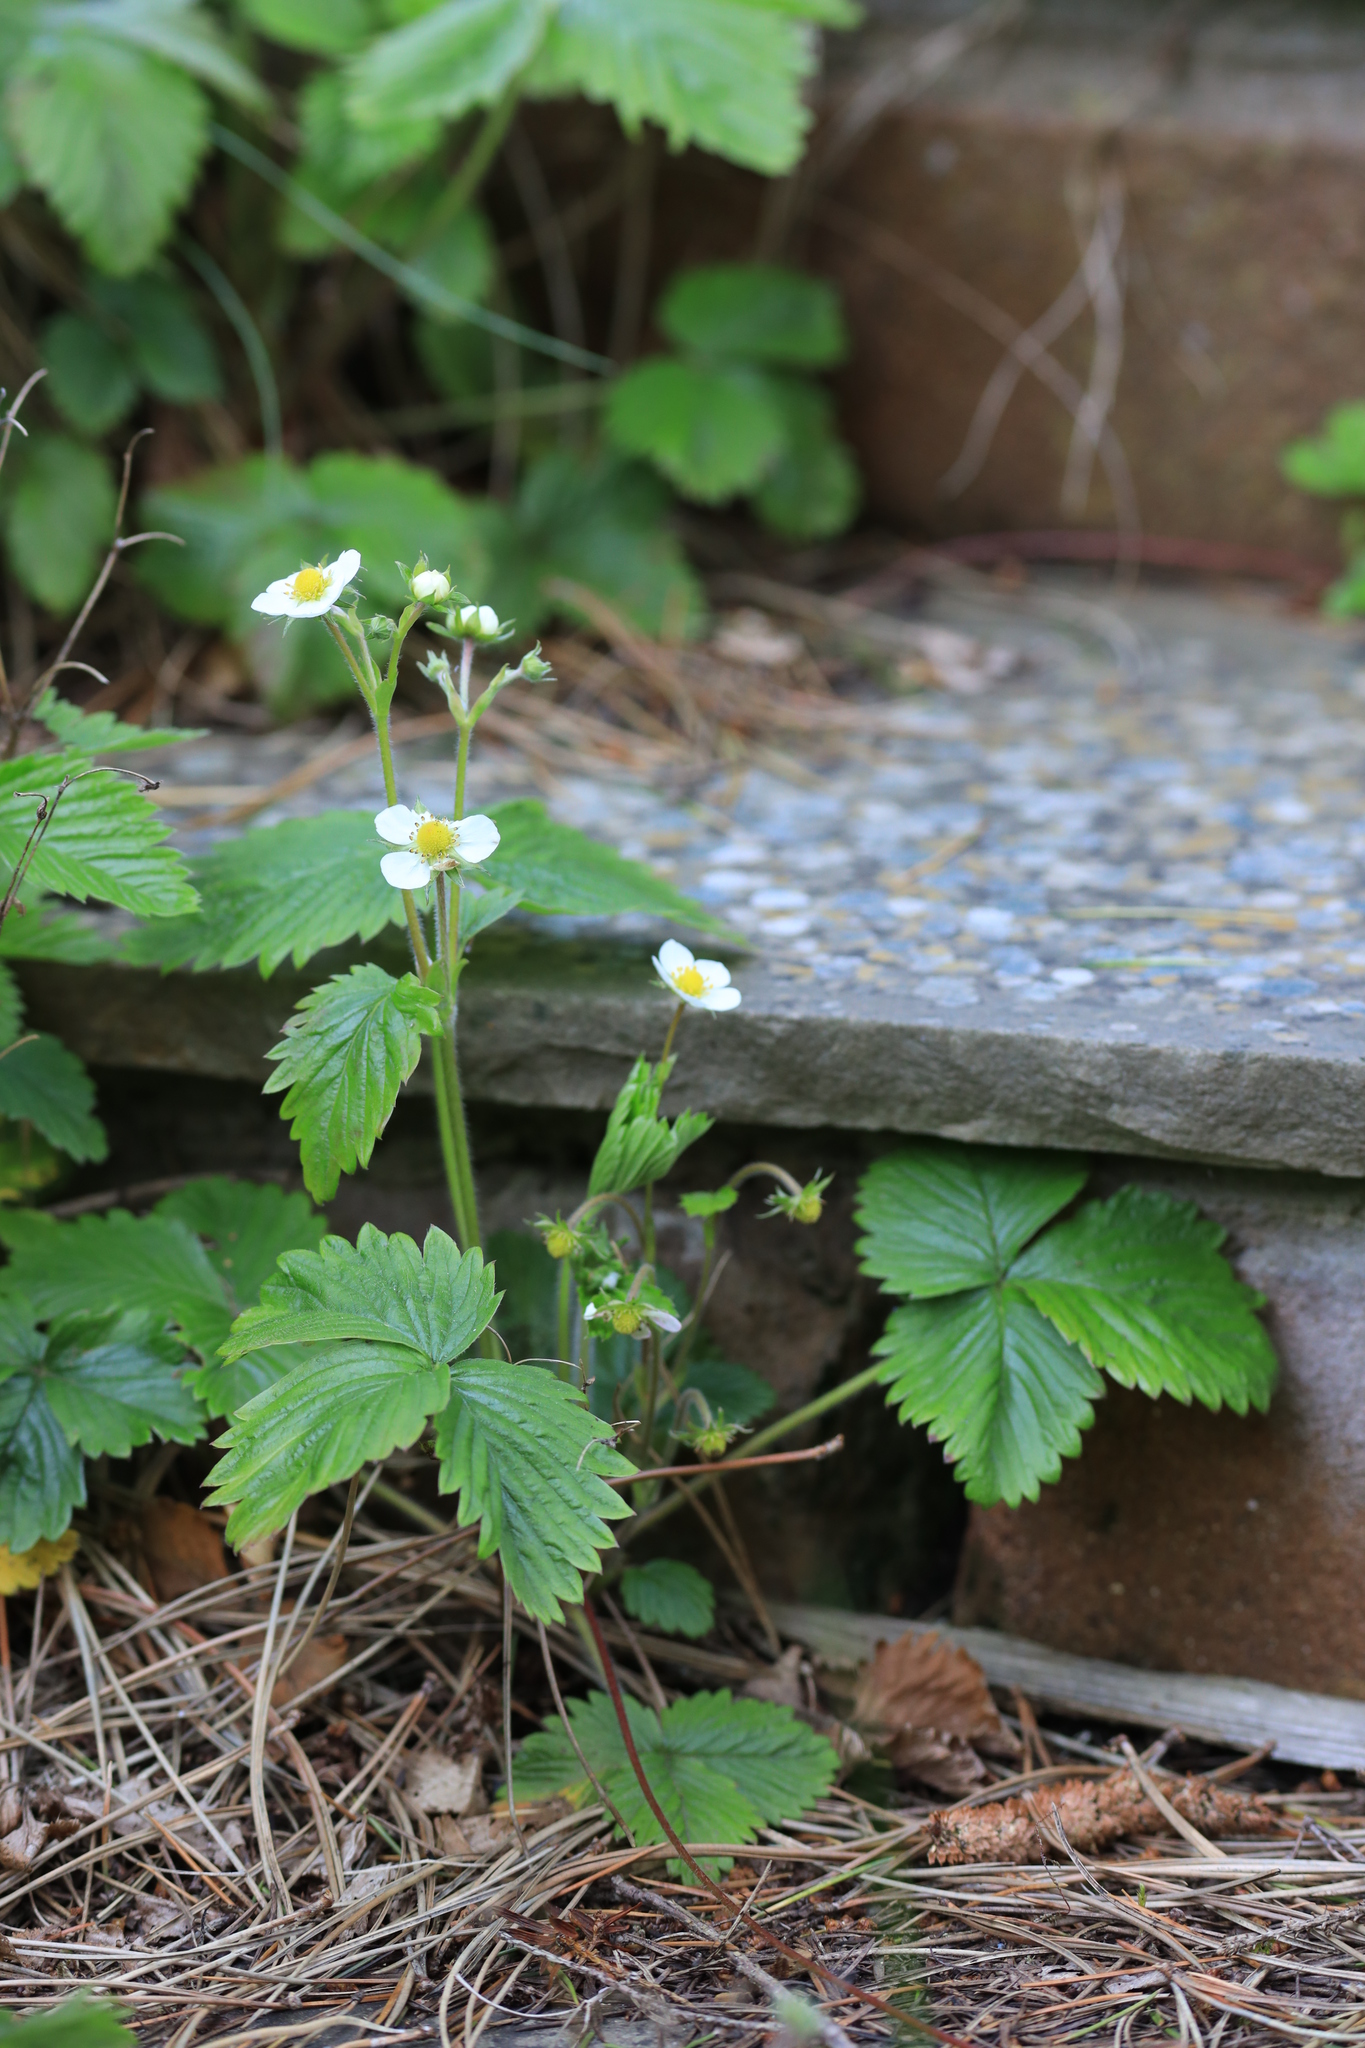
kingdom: Plantae
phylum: Tracheophyta
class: Magnoliopsida
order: Rosales
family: Rosaceae
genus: Fragaria
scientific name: Fragaria vesca
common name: Wild strawberry
